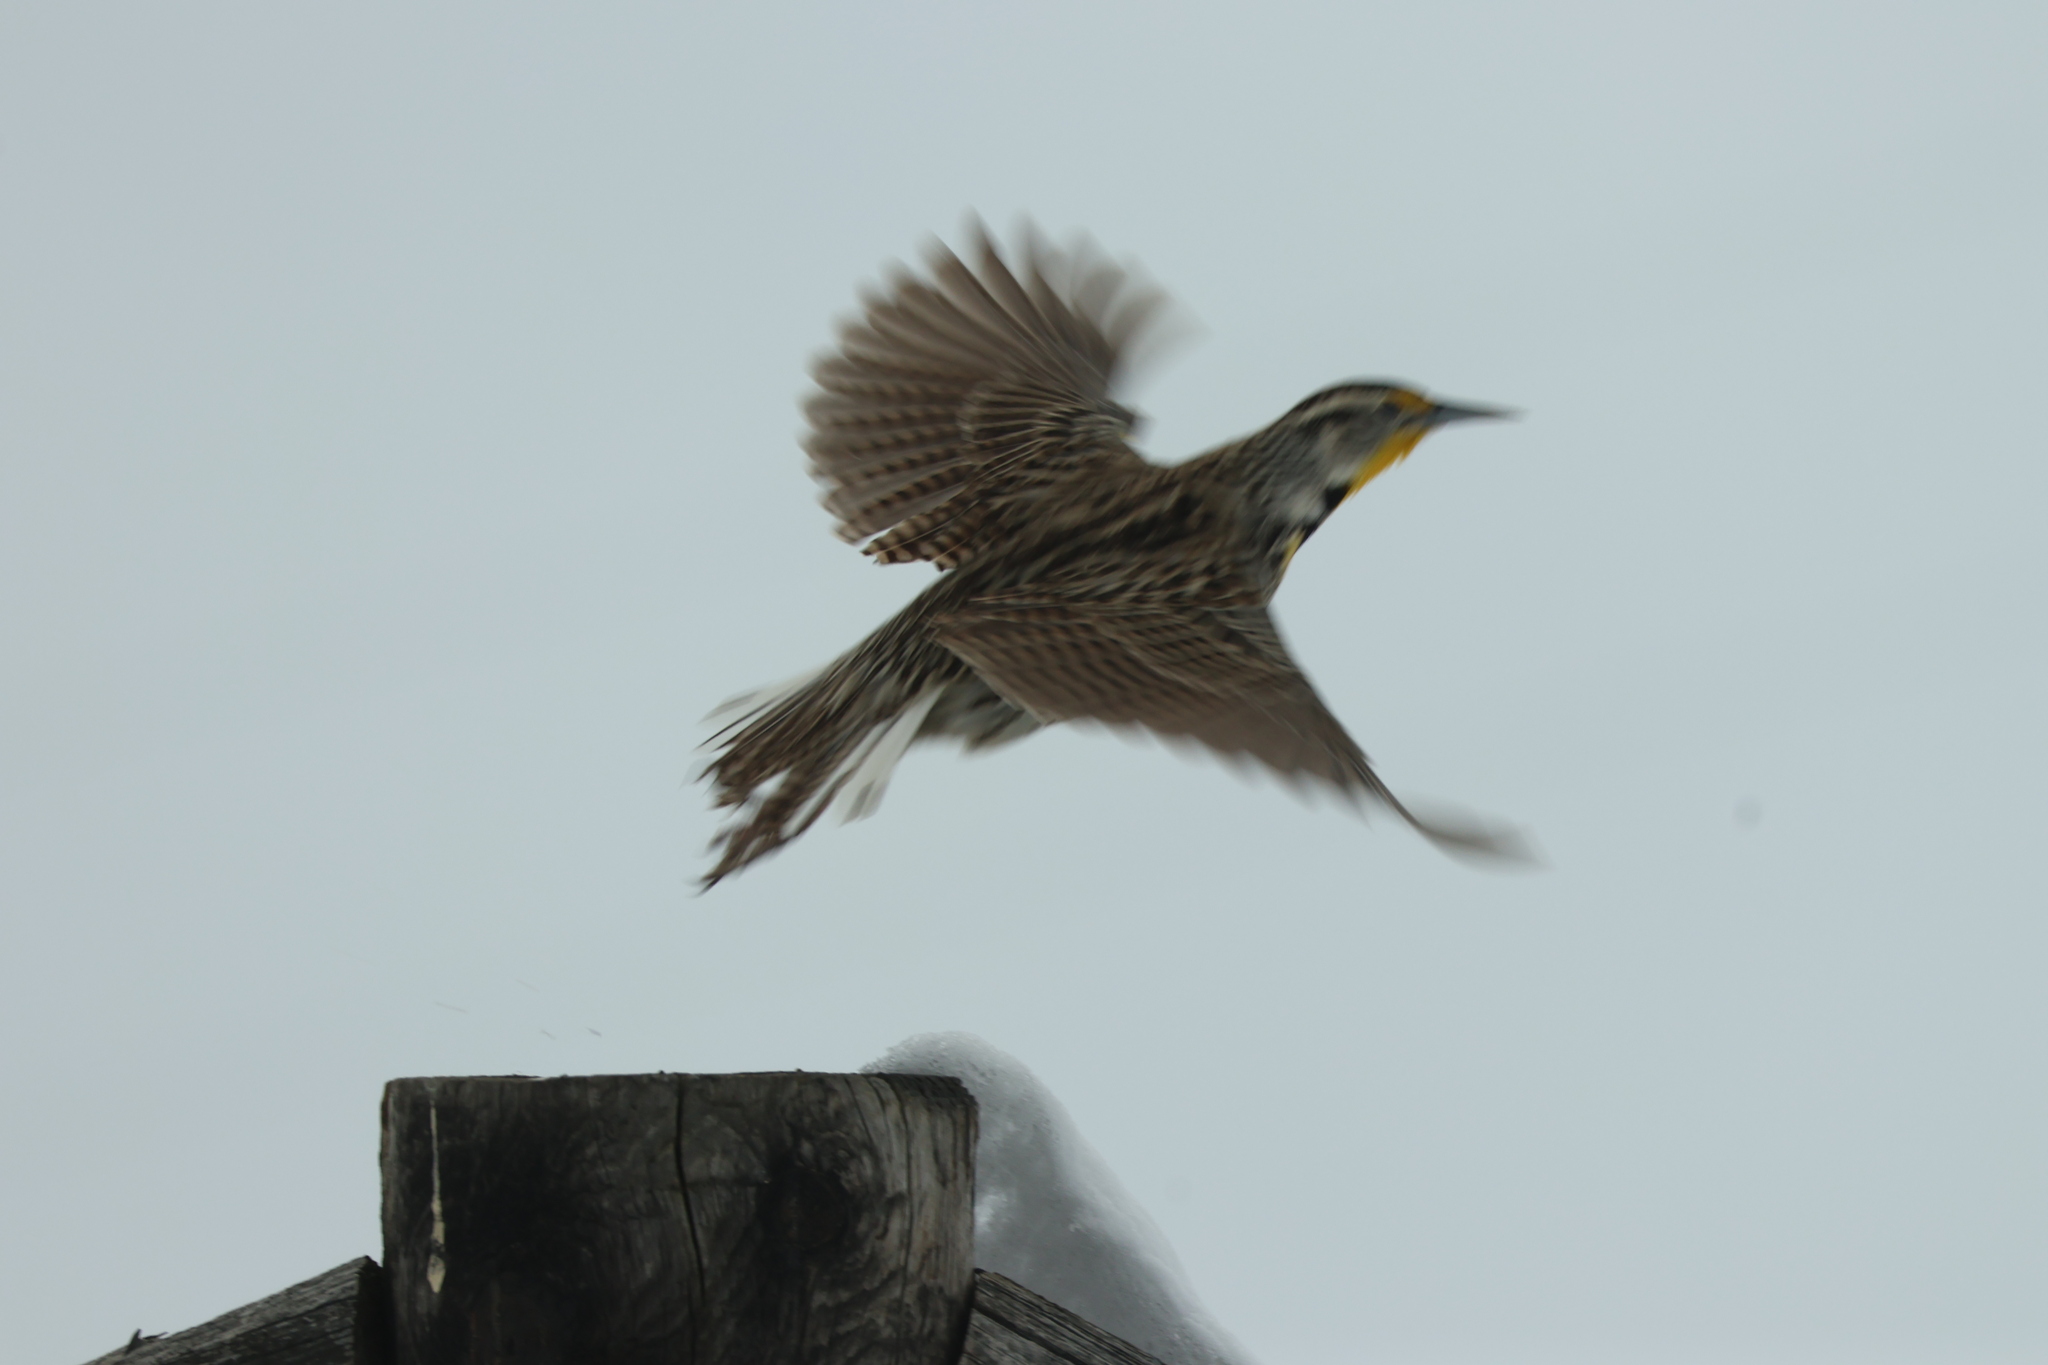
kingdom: Animalia
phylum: Chordata
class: Aves
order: Passeriformes
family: Icteridae
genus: Sturnella
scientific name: Sturnella neglecta
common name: Western meadowlark
